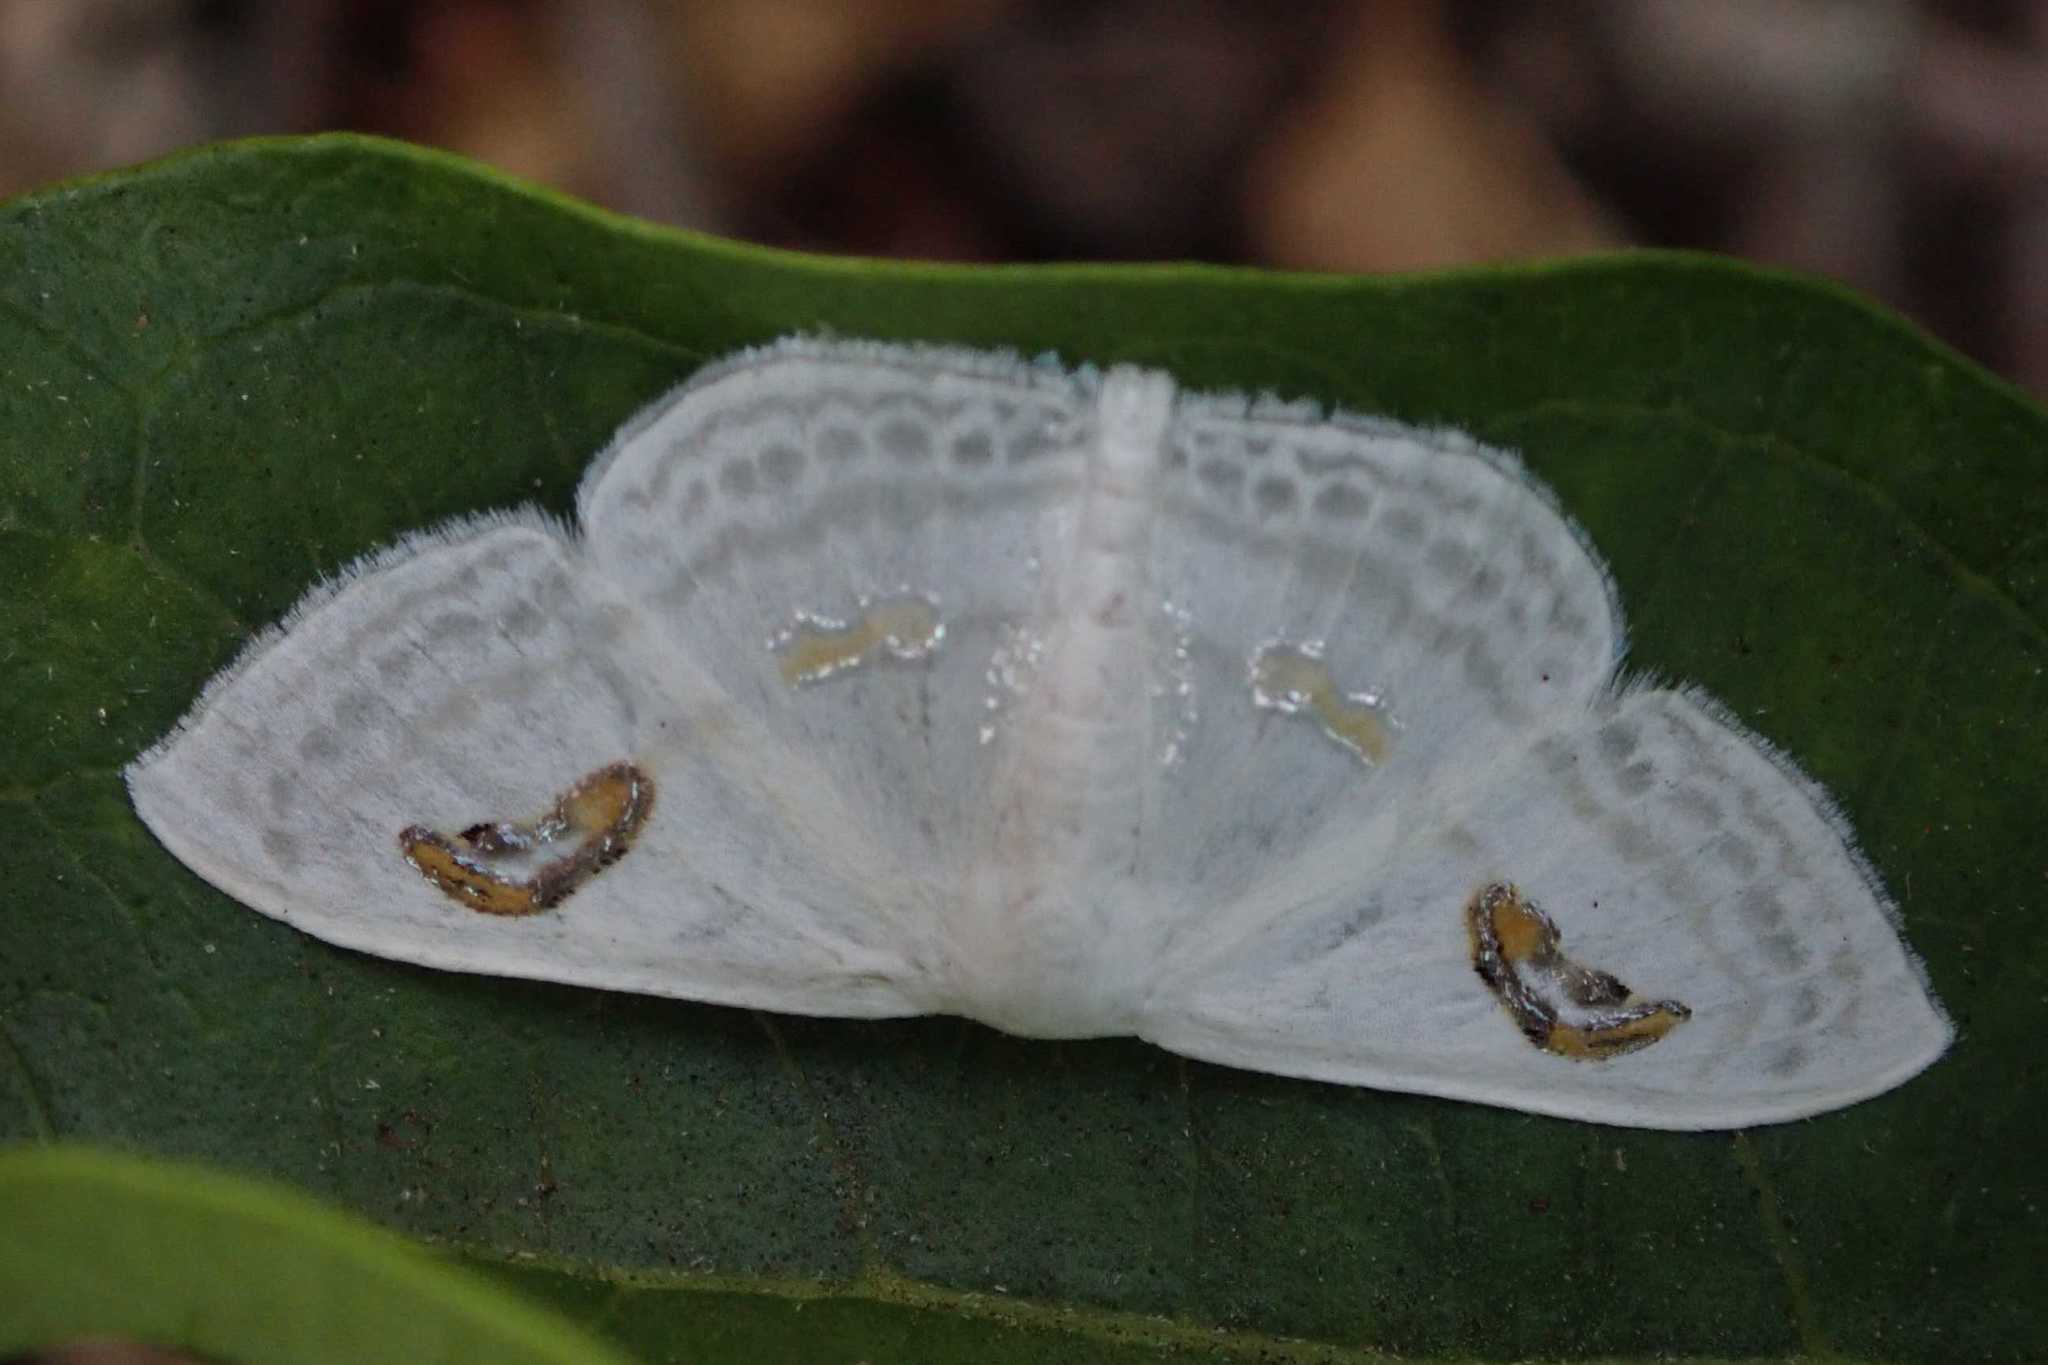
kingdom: Animalia
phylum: Arthropoda
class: Insecta
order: Lepidoptera
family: Geometridae
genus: Problepsis
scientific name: Problepsis digammata
